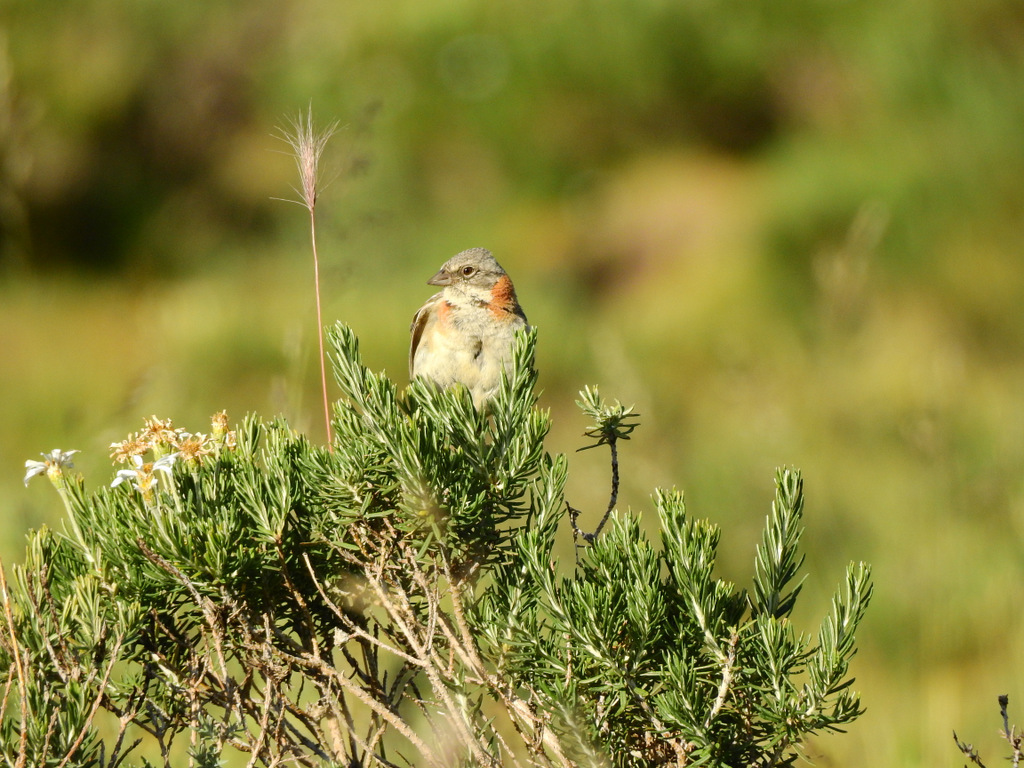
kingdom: Animalia
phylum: Chordata
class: Aves
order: Passeriformes
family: Passerellidae
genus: Zonotrichia
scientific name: Zonotrichia capensis
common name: Rufous-collared sparrow
